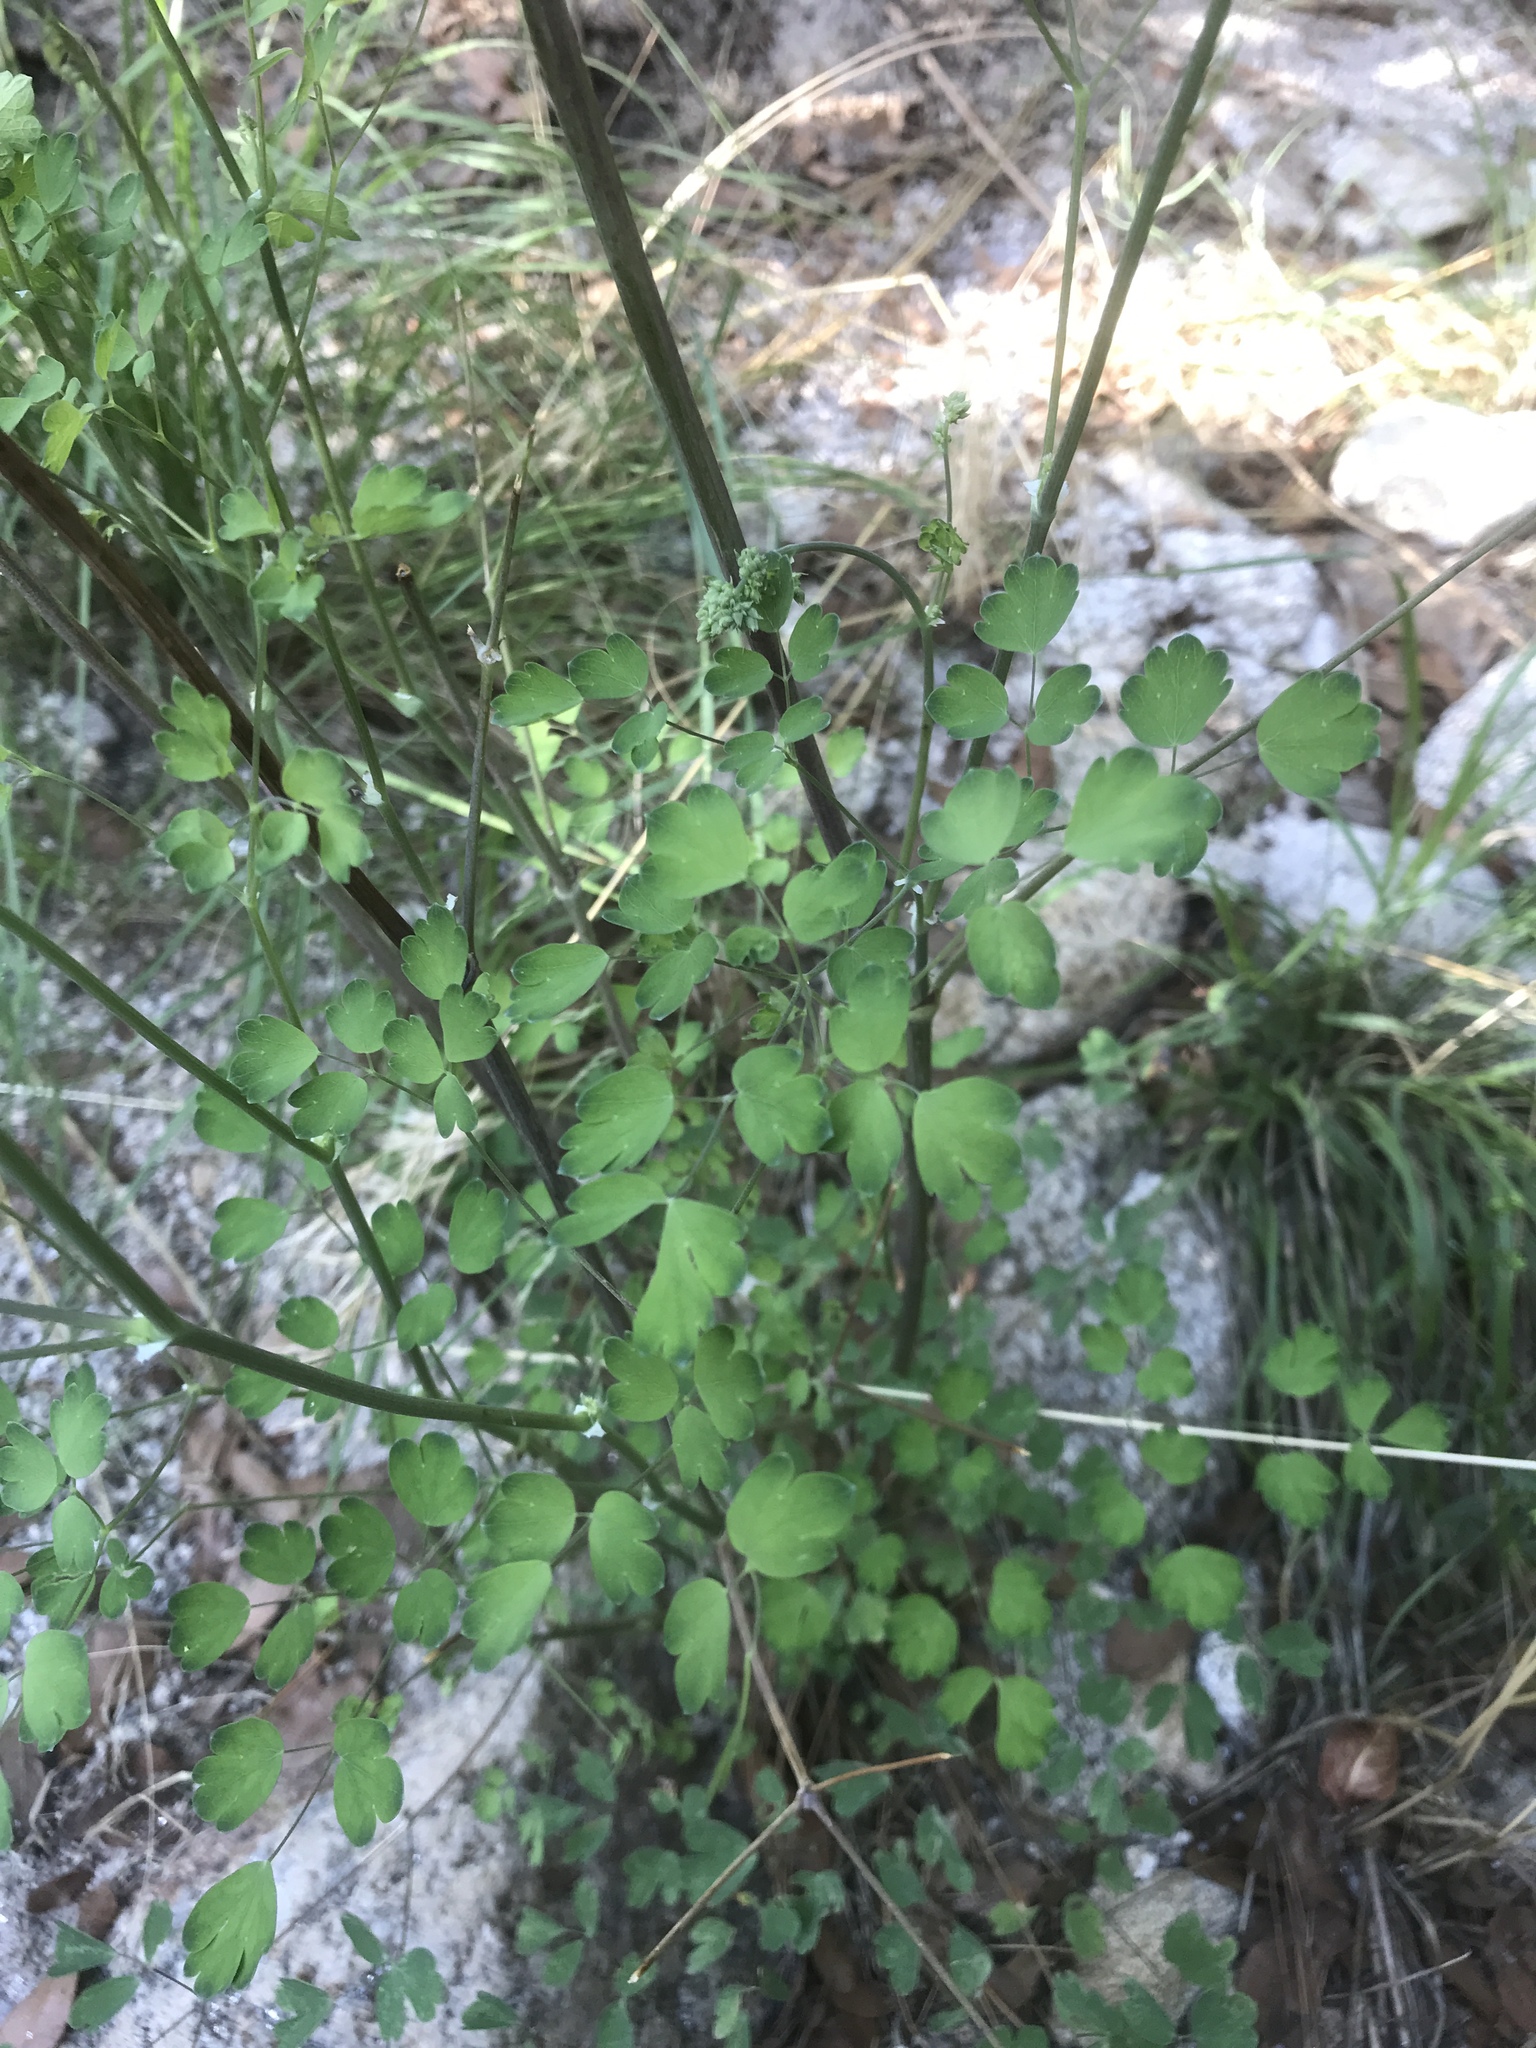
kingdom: Plantae
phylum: Tracheophyta
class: Magnoliopsida
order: Ranunculales
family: Ranunculaceae
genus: Thalictrum
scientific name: Thalictrum fendleri
